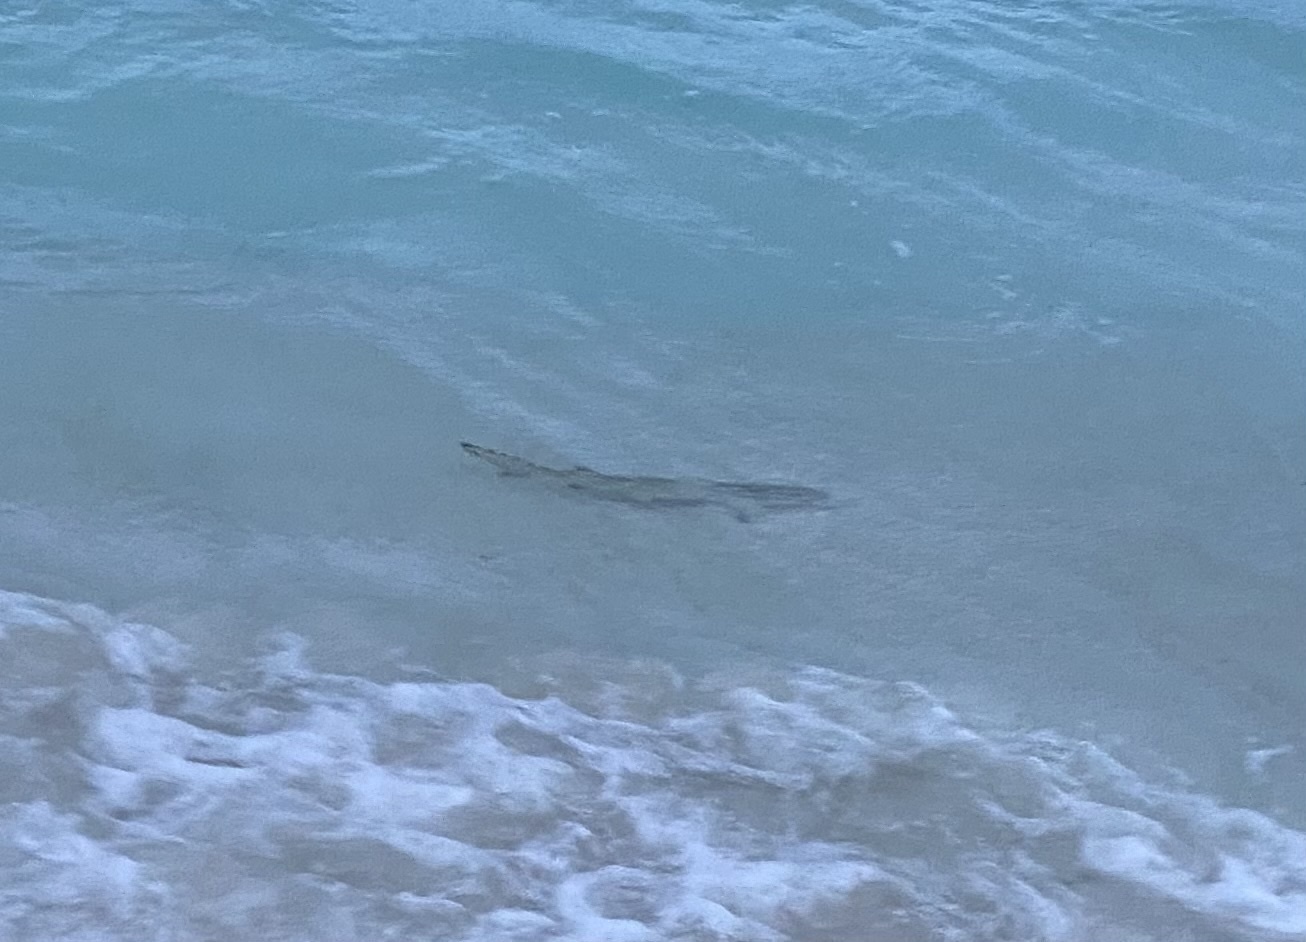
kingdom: Animalia
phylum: Chordata
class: Elasmobranchii
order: Carcharhiniformes
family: Carcharhinidae
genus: Negaprion
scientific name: Negaprion brevirostris
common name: Lemon shark
